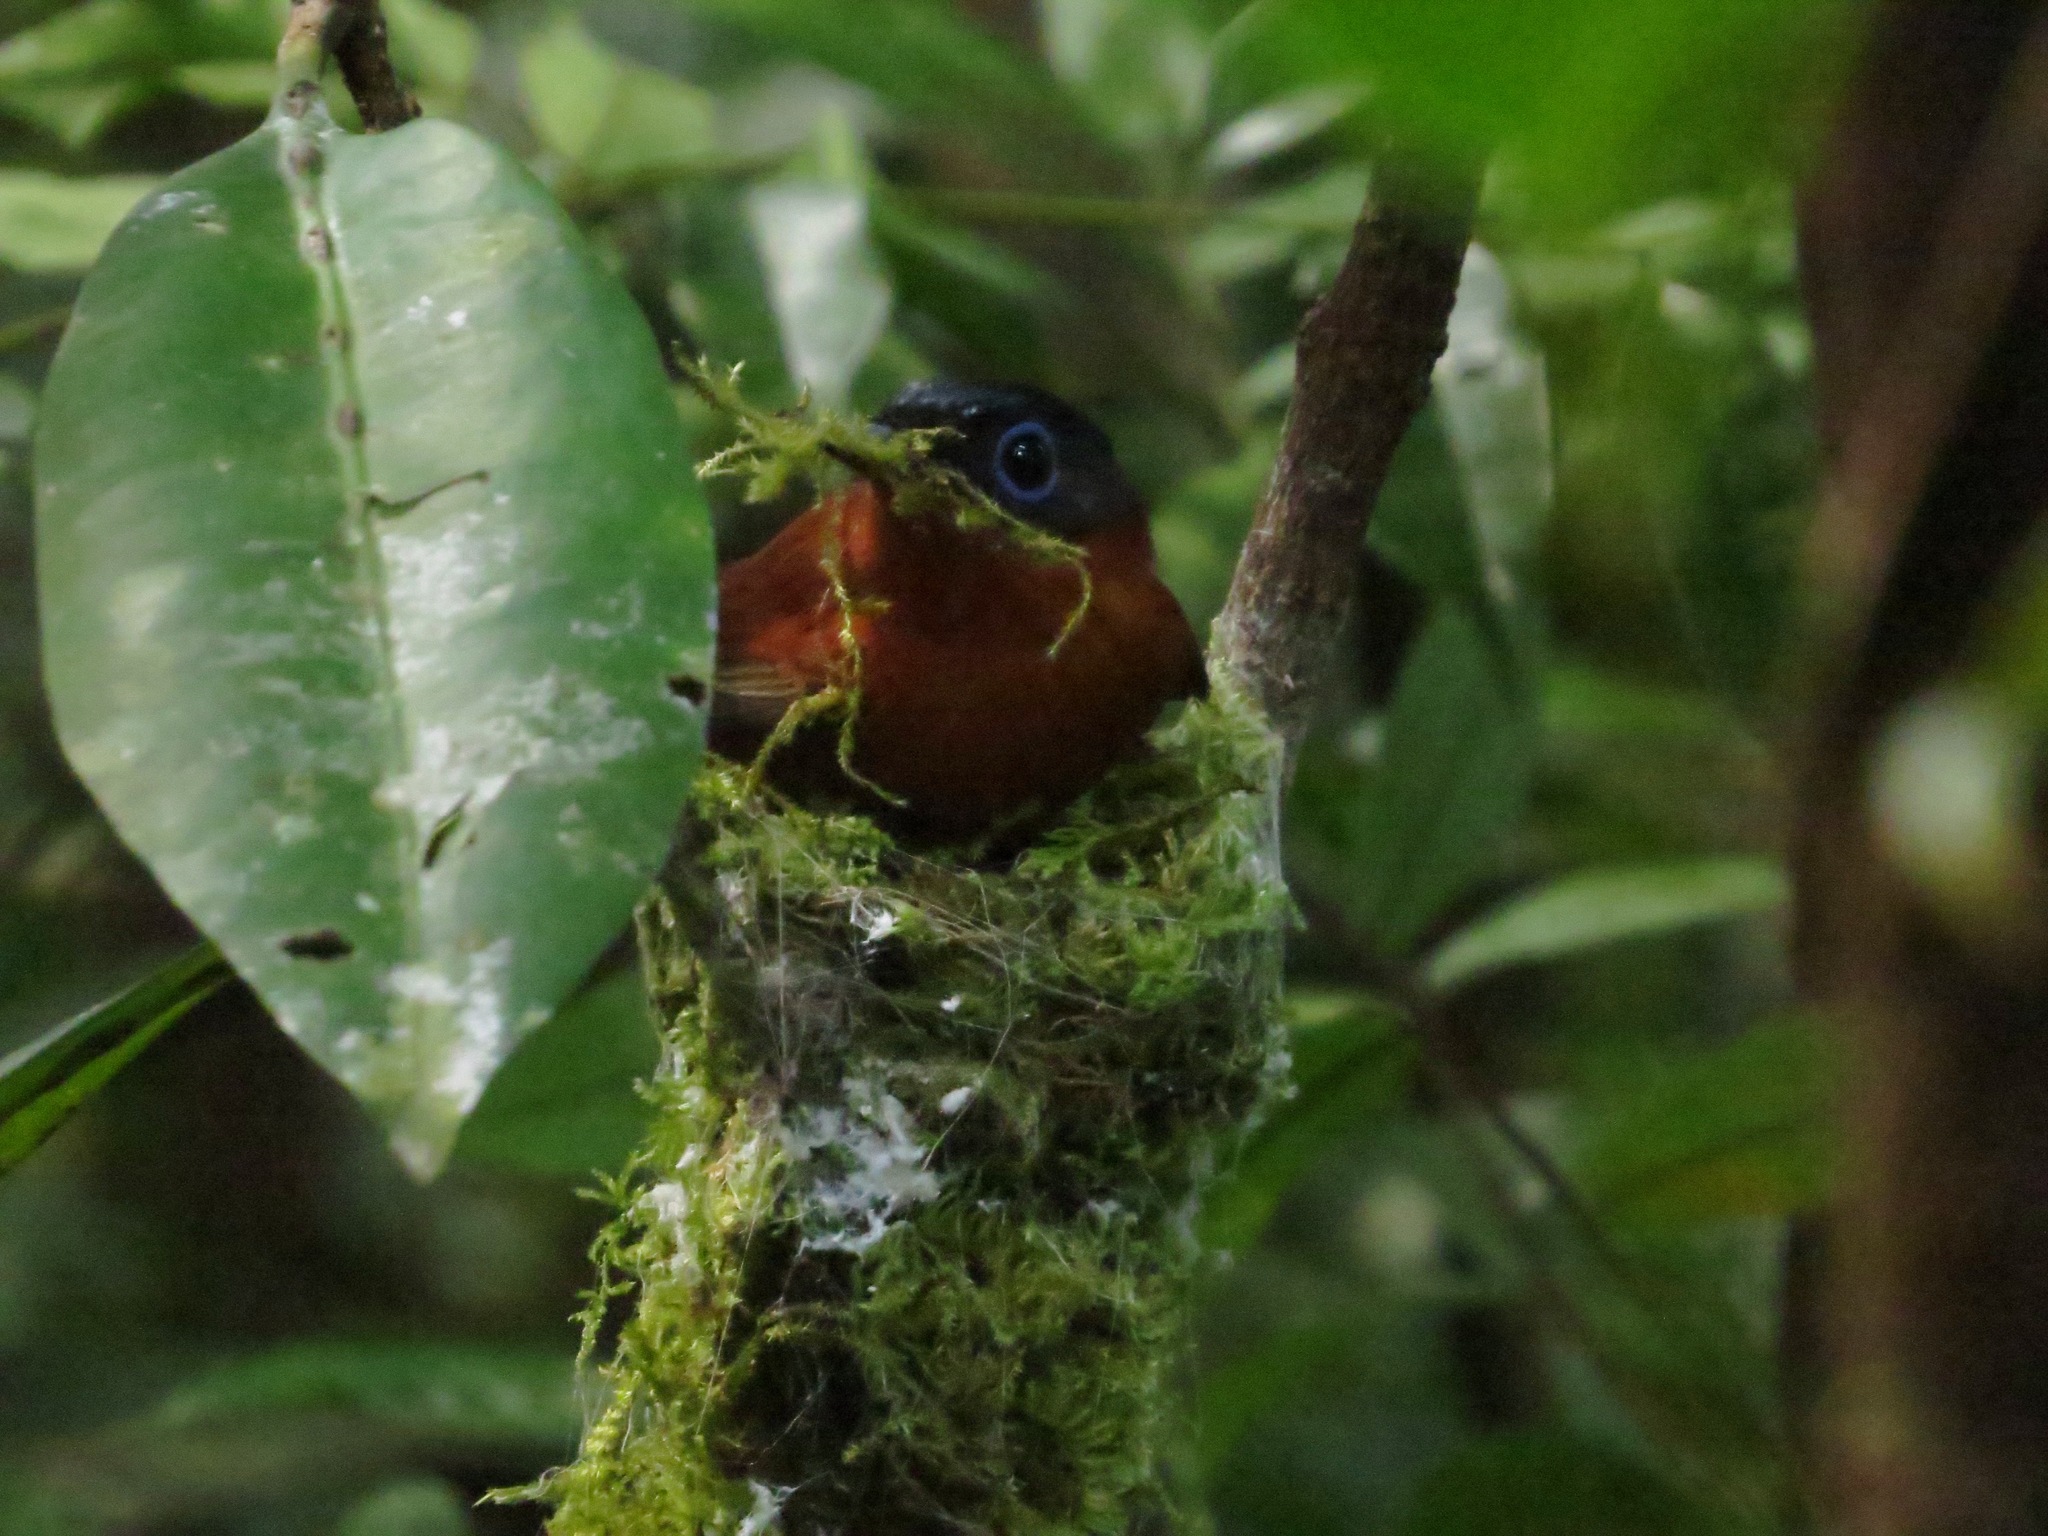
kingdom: Animalia
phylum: Chordata
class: Aves
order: Passeriformes
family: Monarchidae
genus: Terpsiphone
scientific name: Terpsiphone mutata
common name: Malagasy paradise flycatcher
